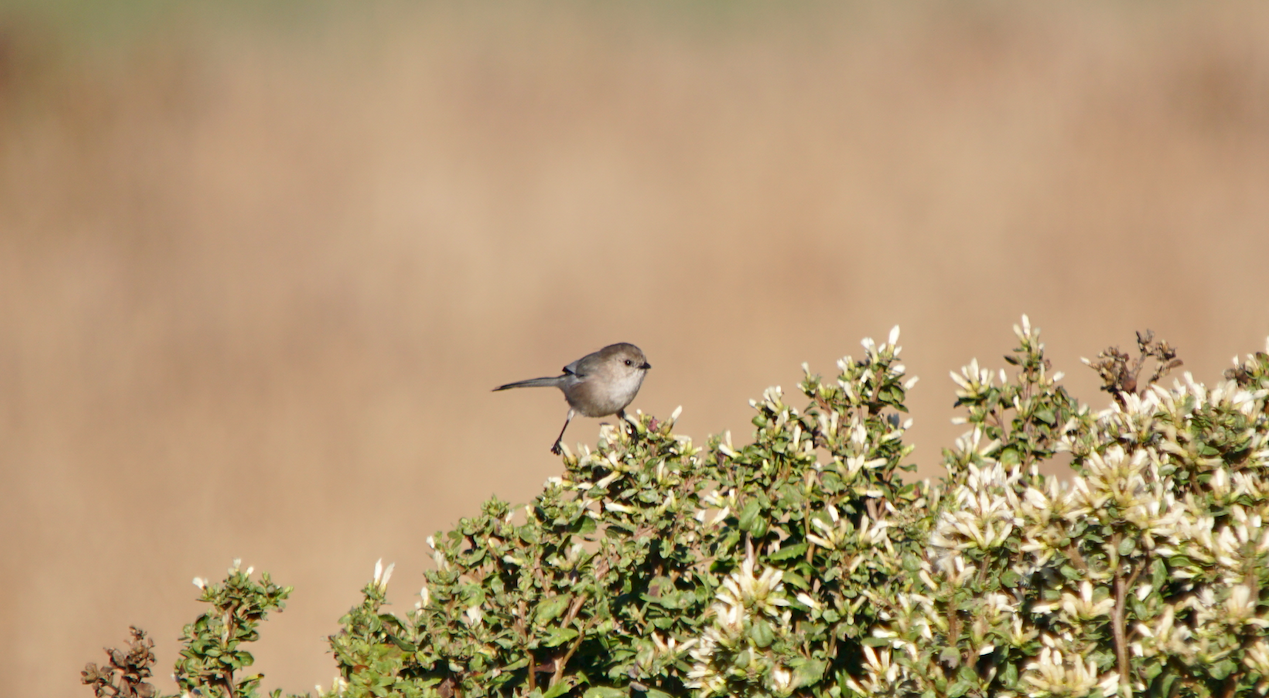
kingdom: Animalia
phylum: Chordata
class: Aves
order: Passeriformes
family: Aegithalidae
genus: Psaltriparus
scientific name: Psaltriparus minimus
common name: American bushtit
